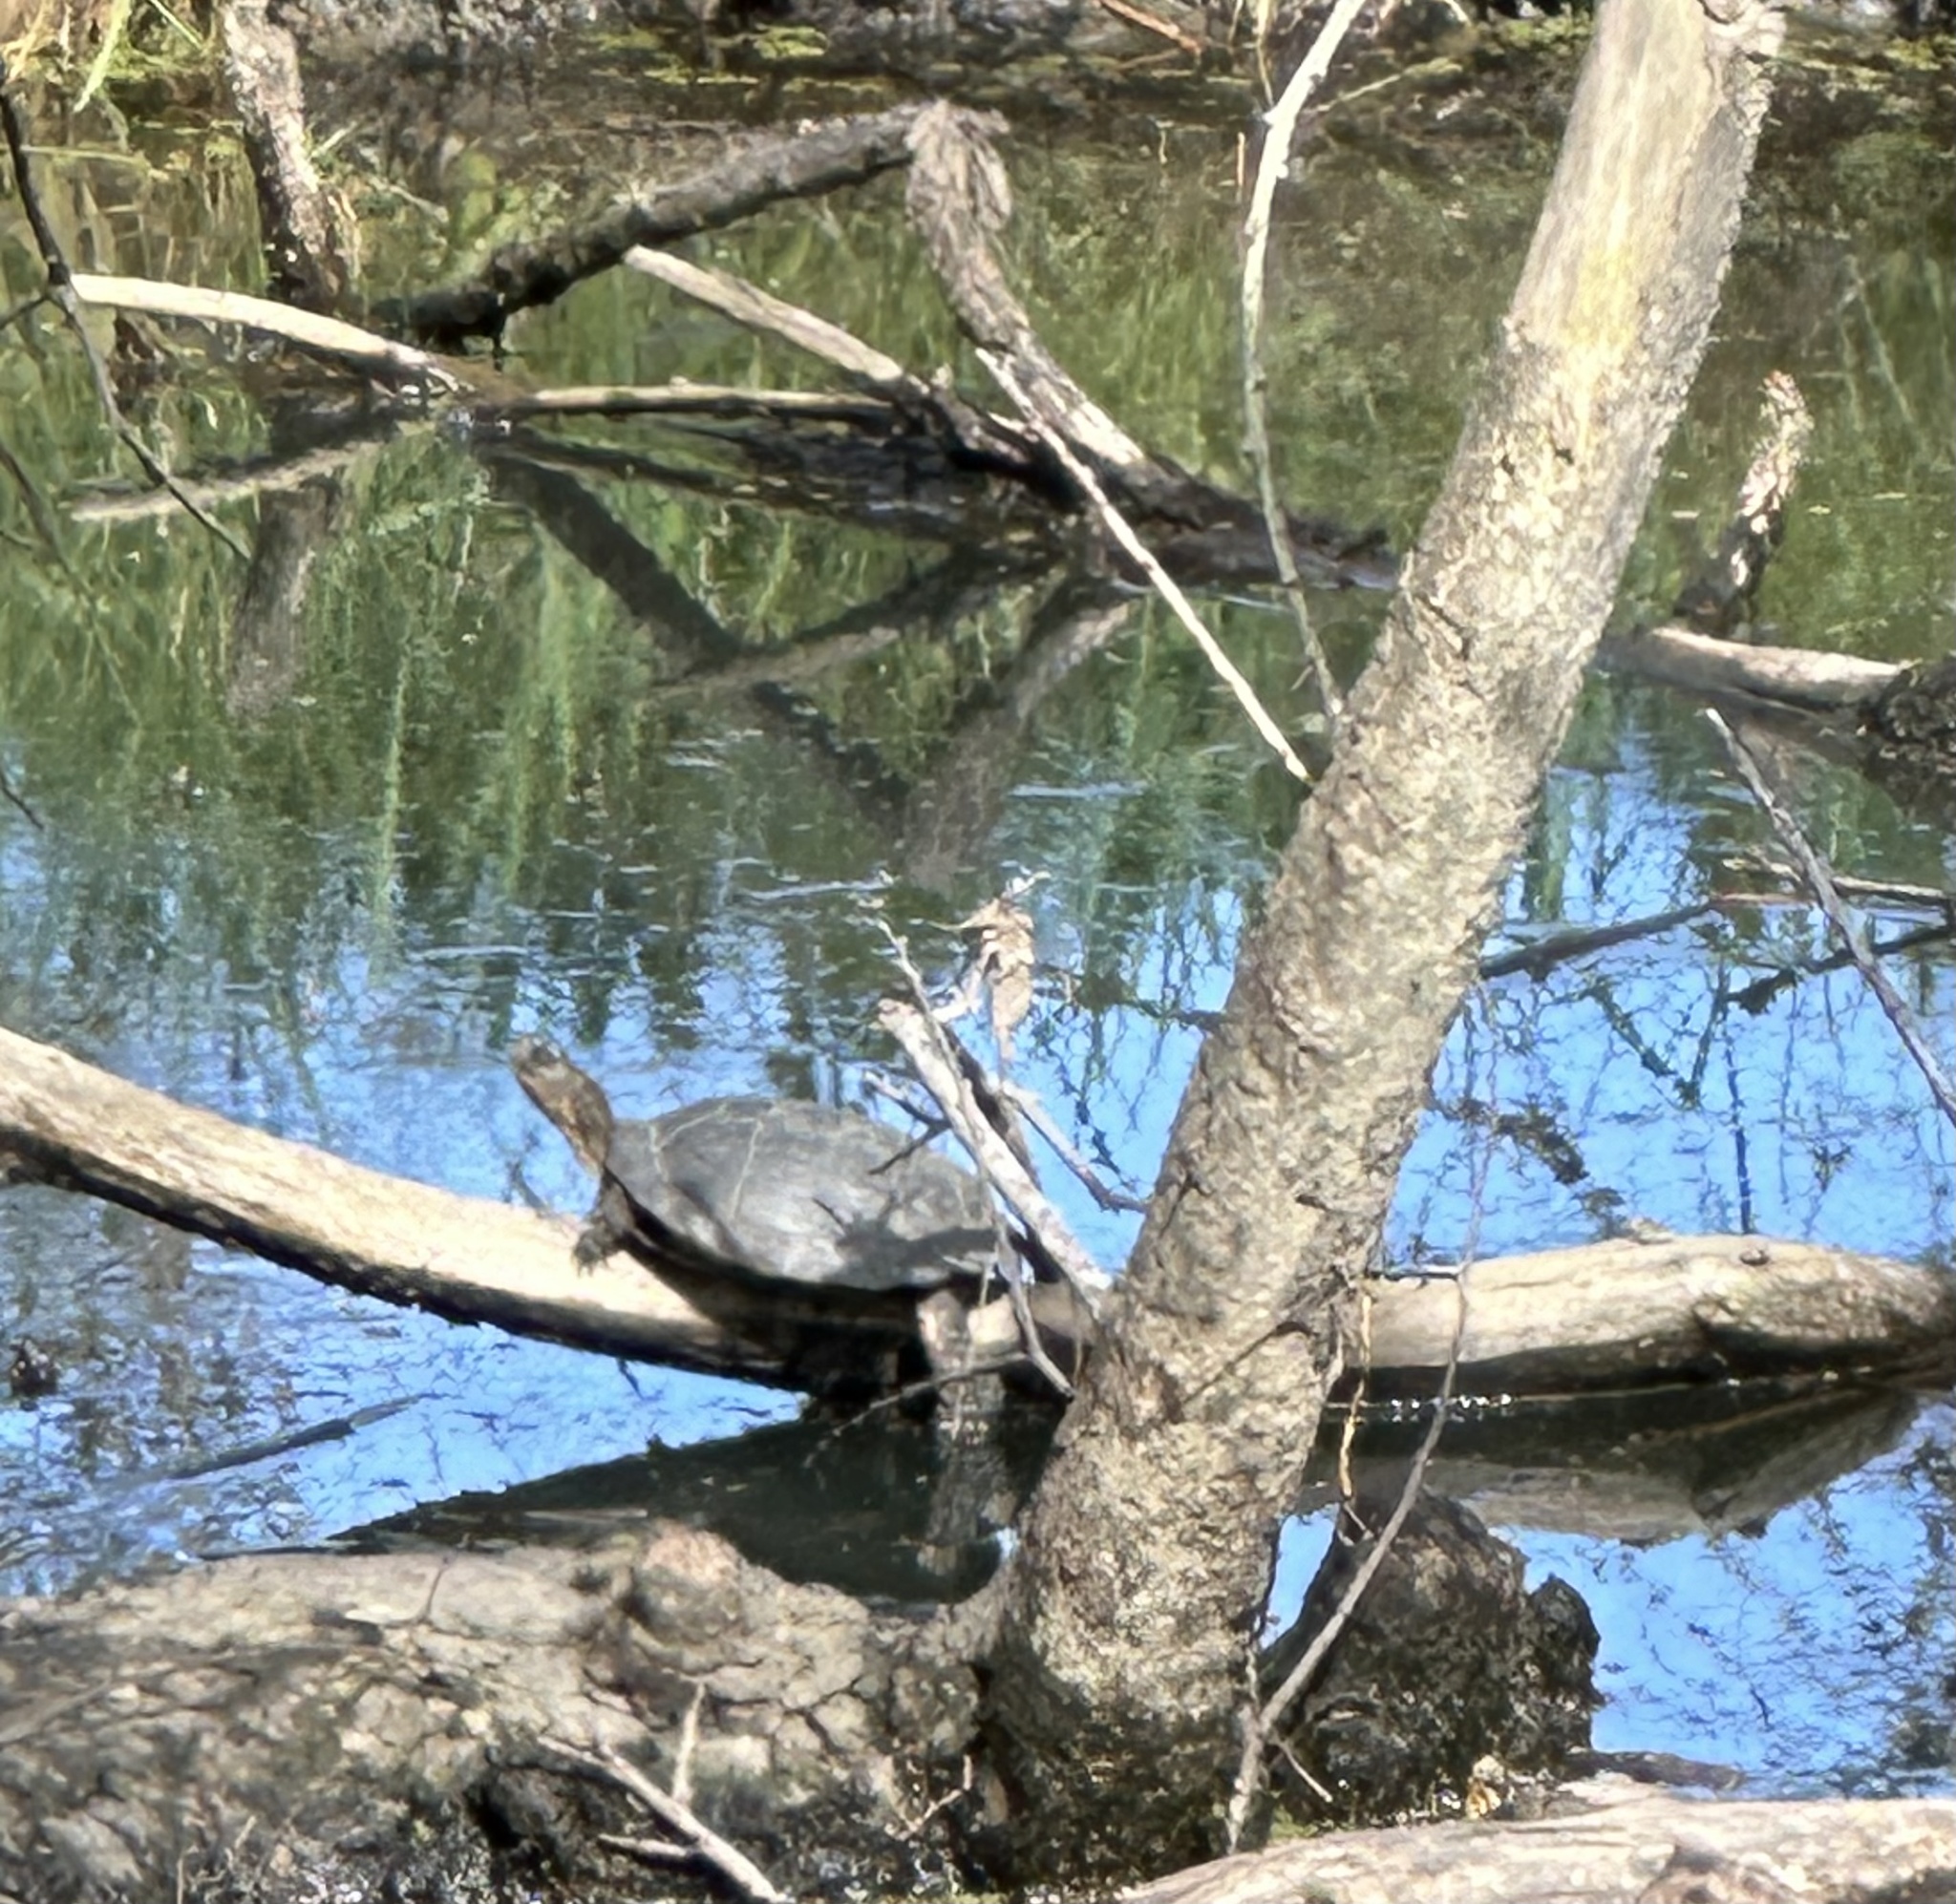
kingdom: Animalia
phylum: Chordata
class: Testudines
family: Emydidae
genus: Actinemys
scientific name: Actinemys marmorata
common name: Western pond turtle
